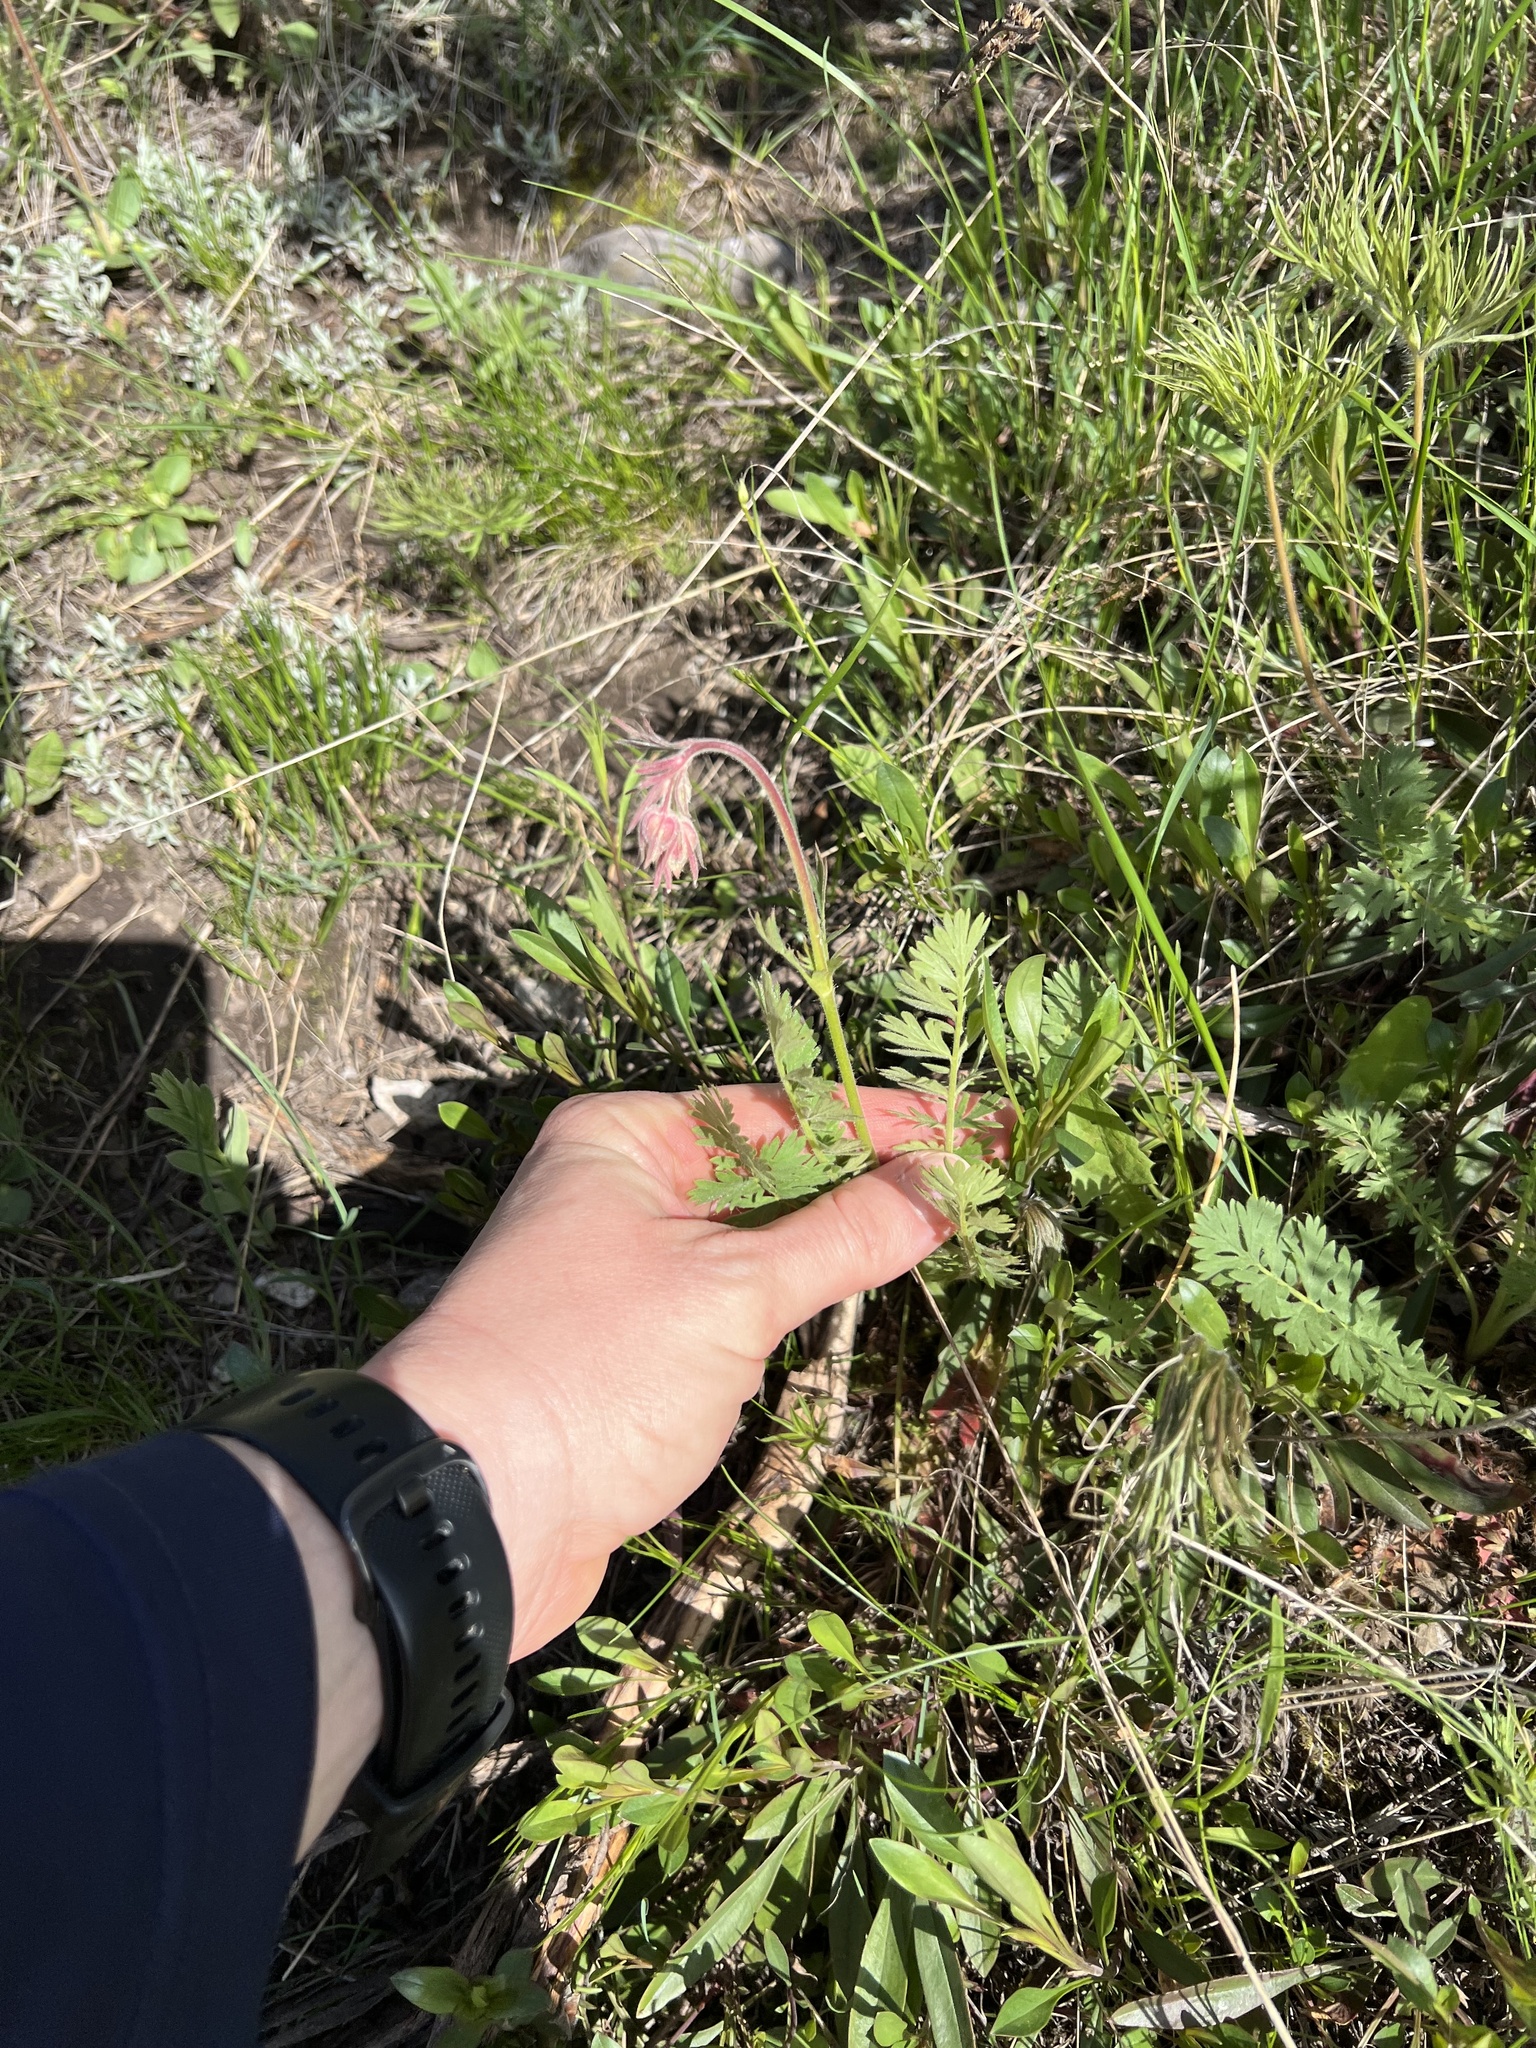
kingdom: Plantae
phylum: Tracheophyta
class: Magnoliopsida
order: Rosales
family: Rosaceae
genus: Geum
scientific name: Geum triflorum
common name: Old man's whiskers
